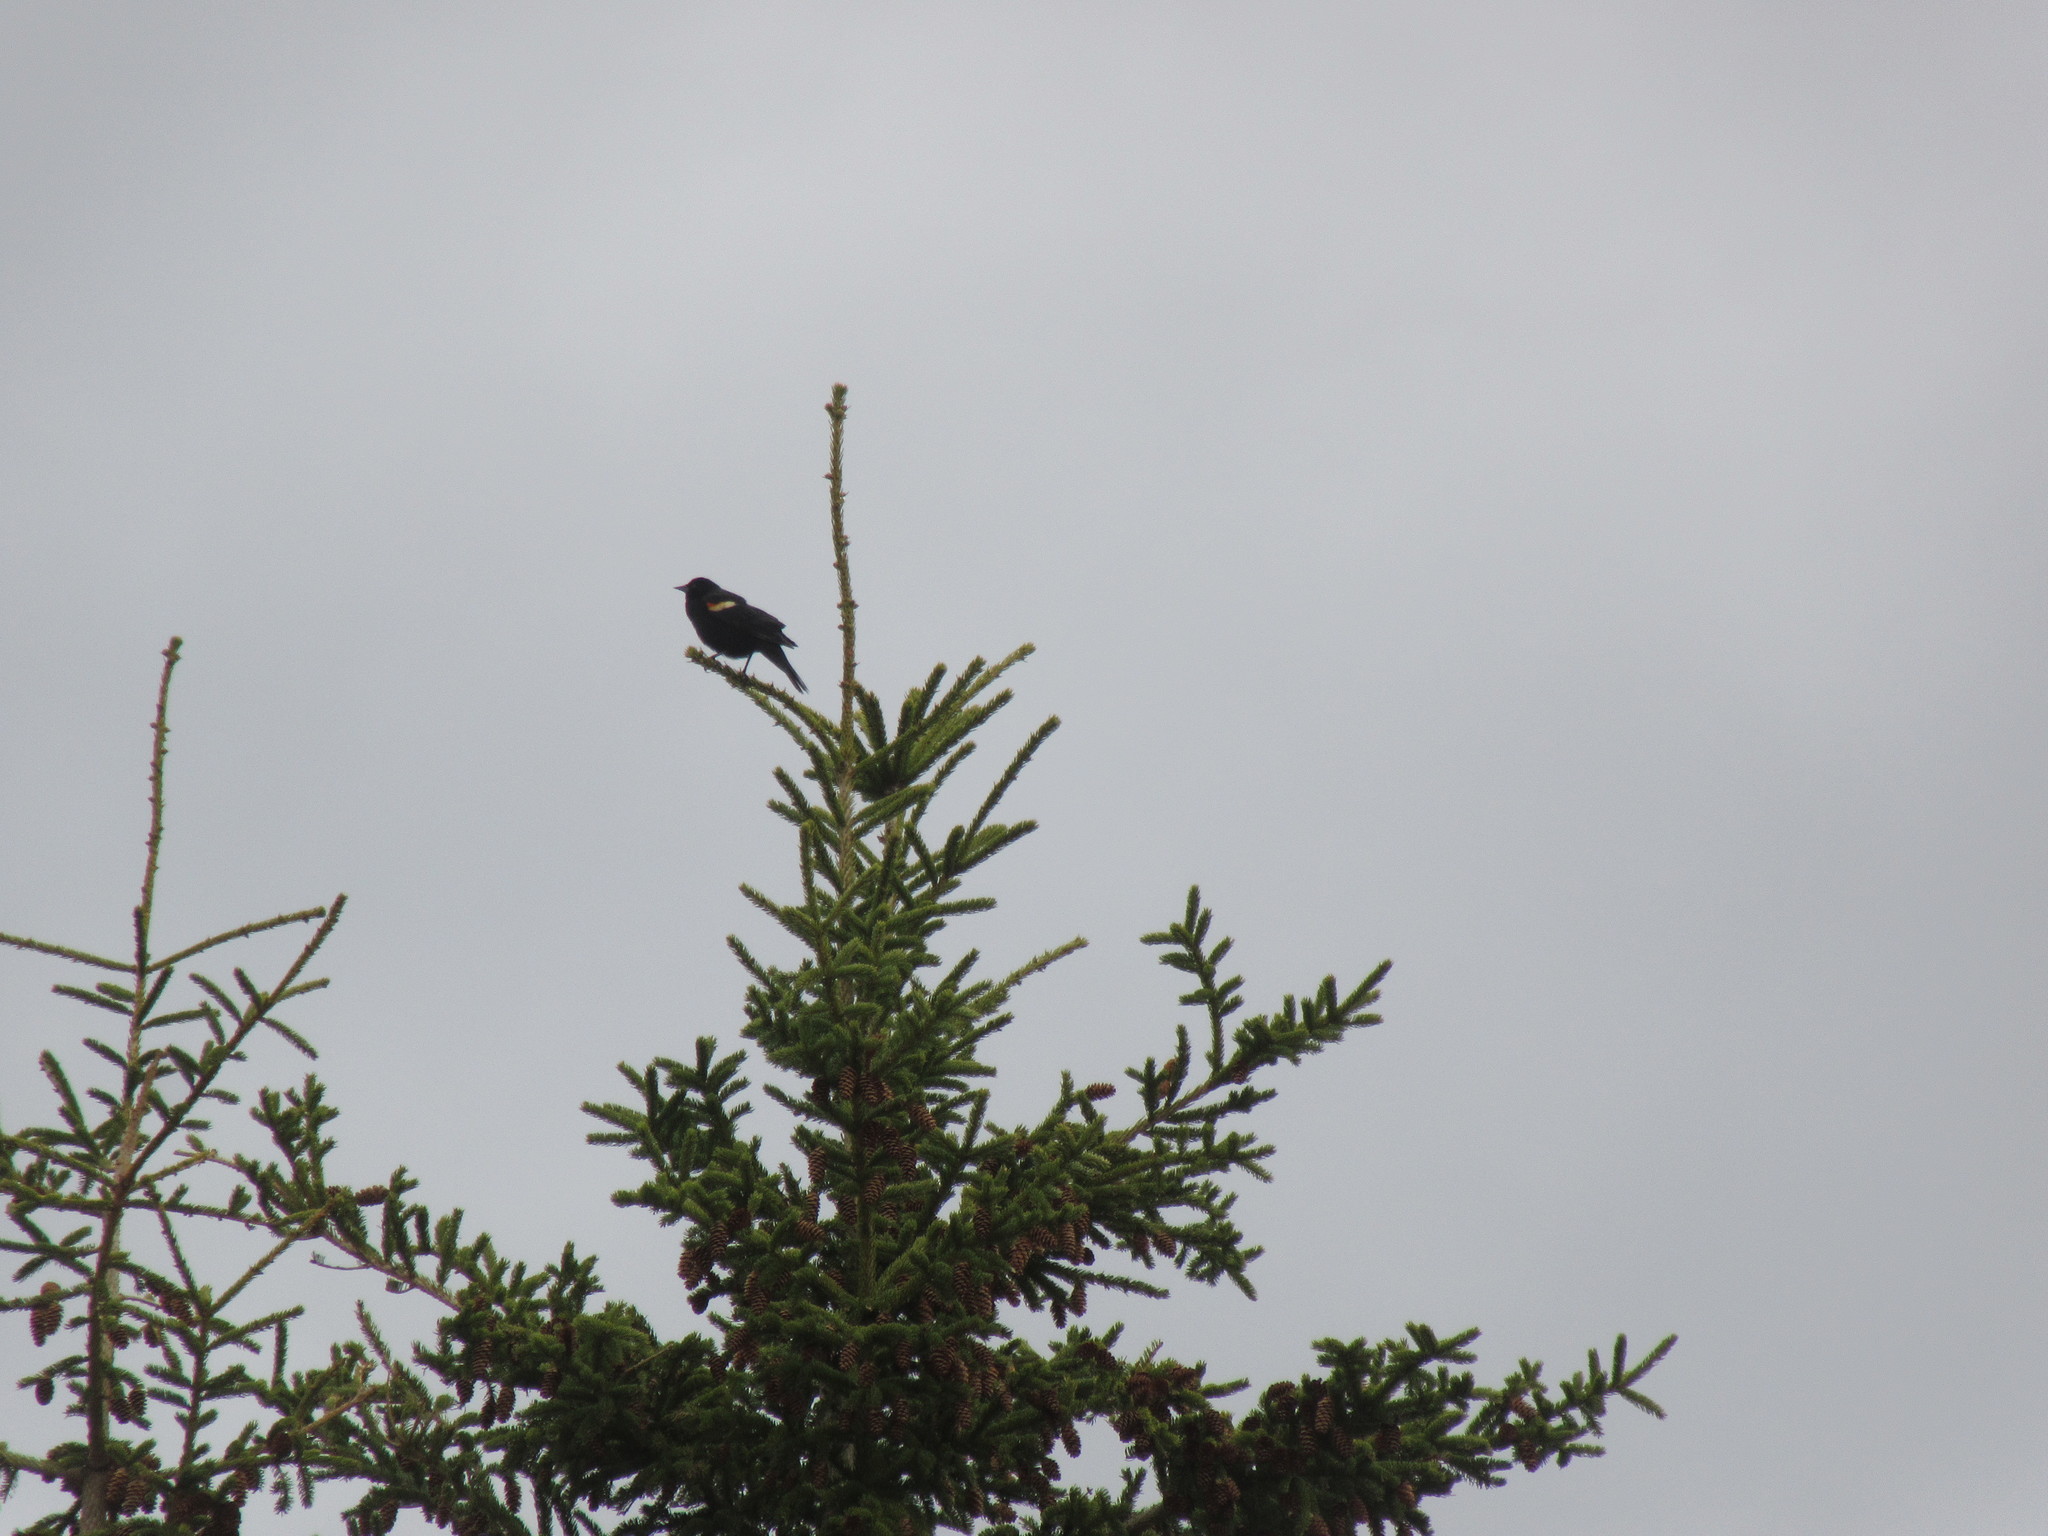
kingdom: Animalia
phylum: Chordata
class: Aves
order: Passeriformes
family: Icteridae
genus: Agelaius
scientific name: Agelaius phoeniceus
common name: Red-winged blackbird
